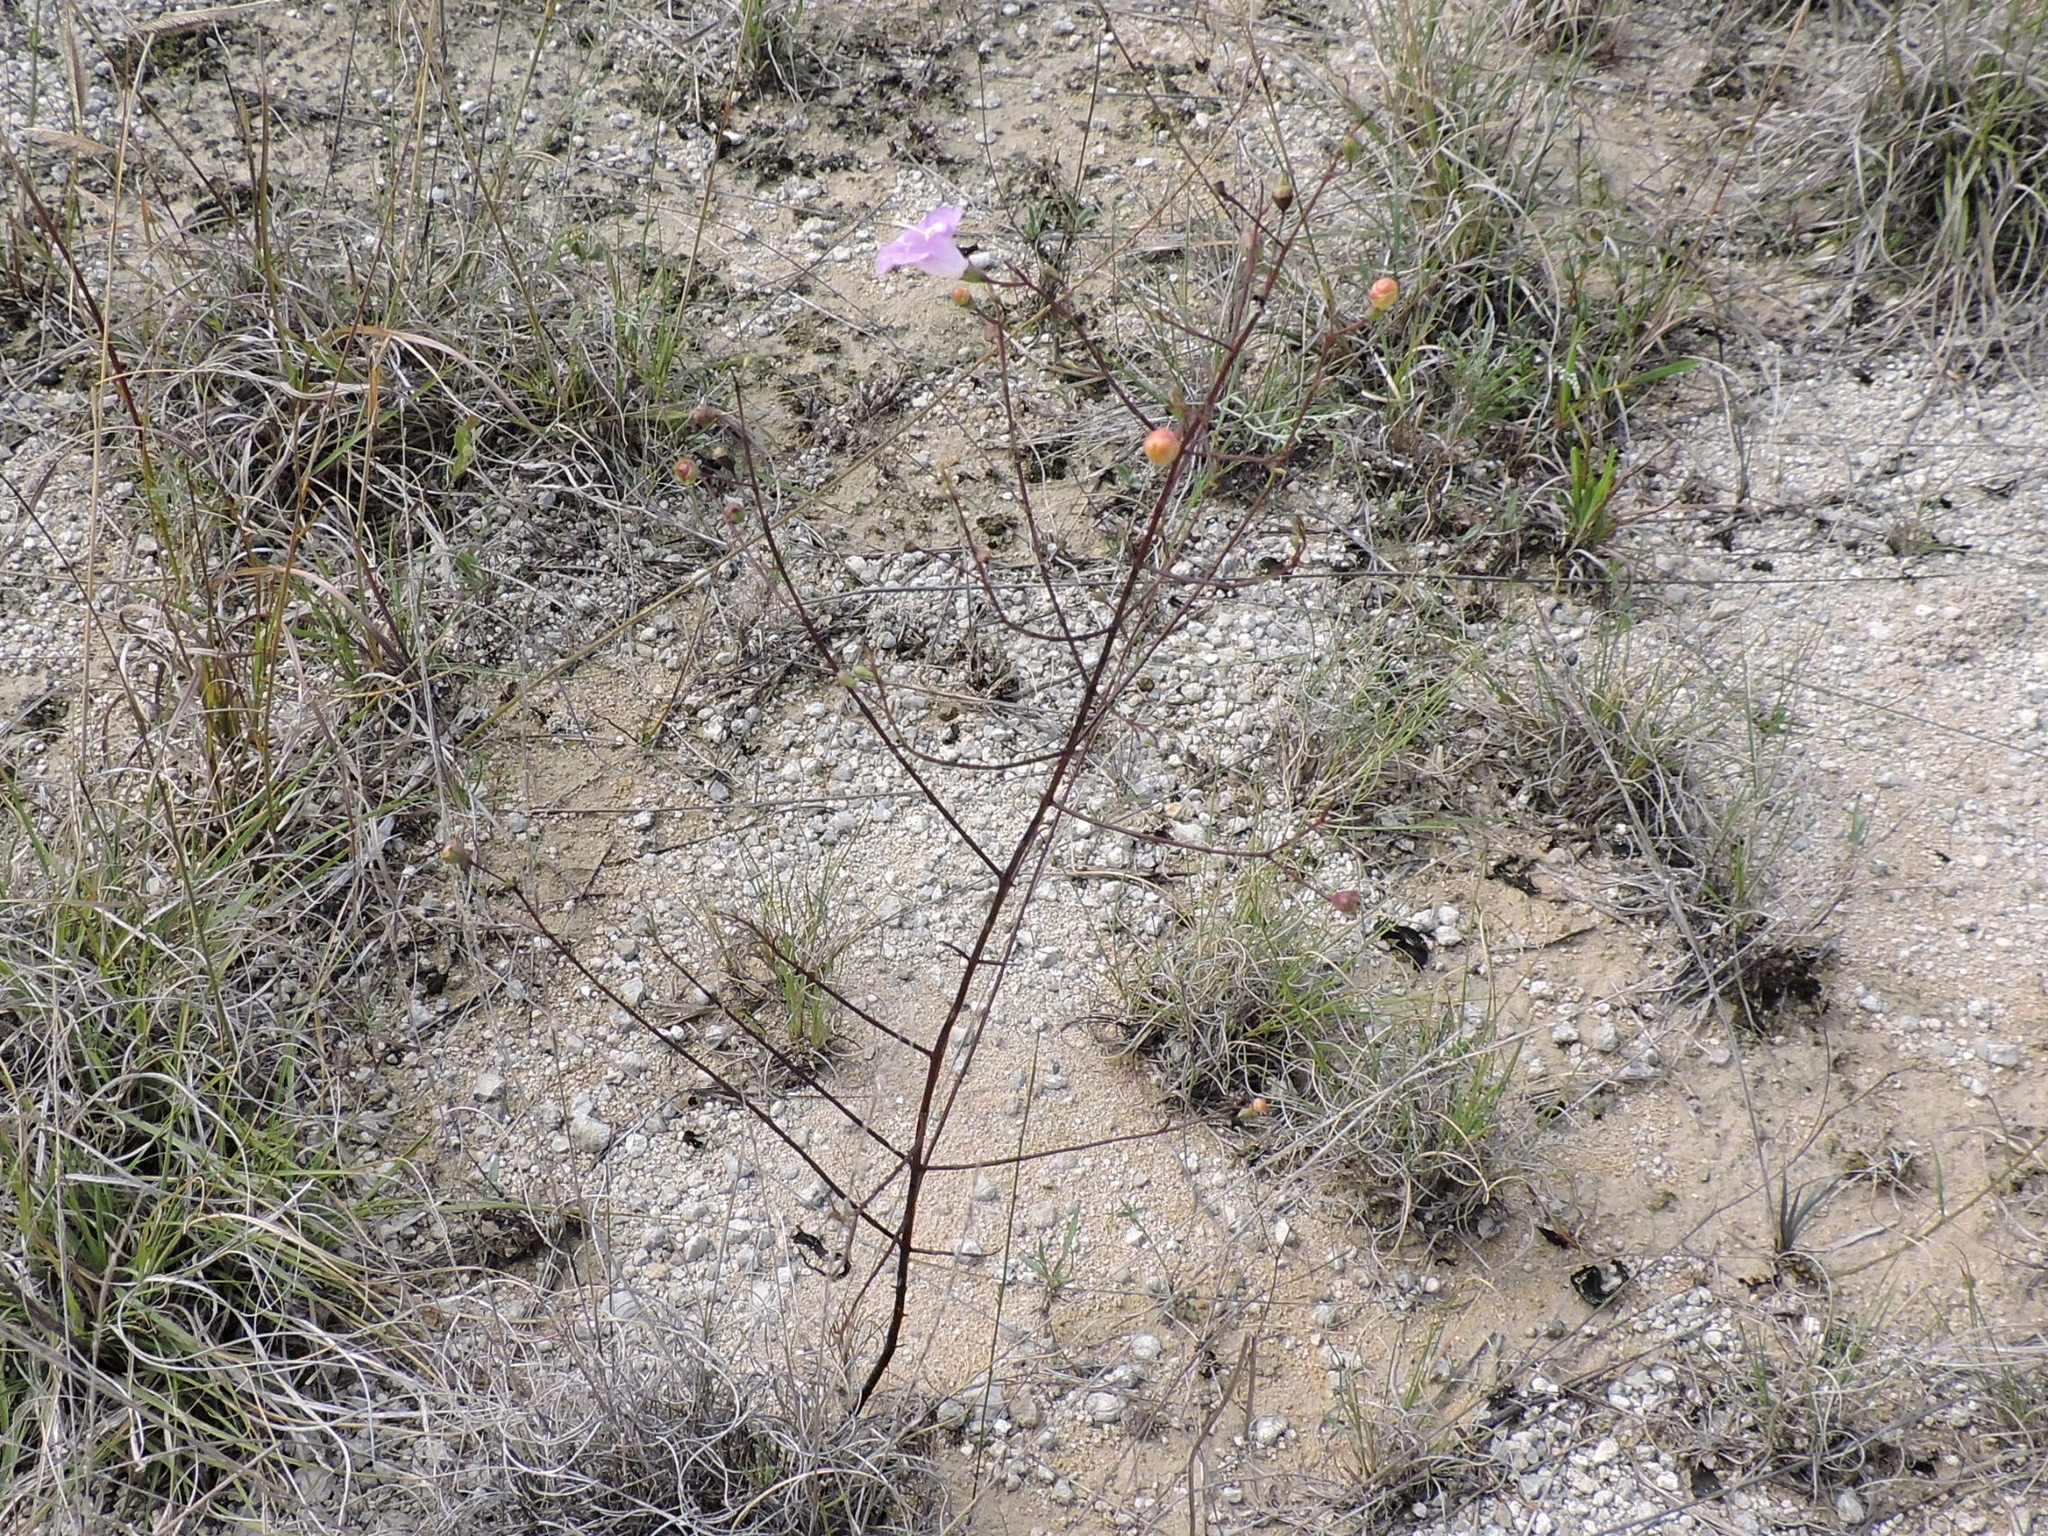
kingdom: Plantae
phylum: Tracheophyta
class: Magnoliopsida
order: Lamiales
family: Orobanchaceae
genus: Agalinis
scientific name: Agalinis edwardsiana
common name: Plateau-gerardia
